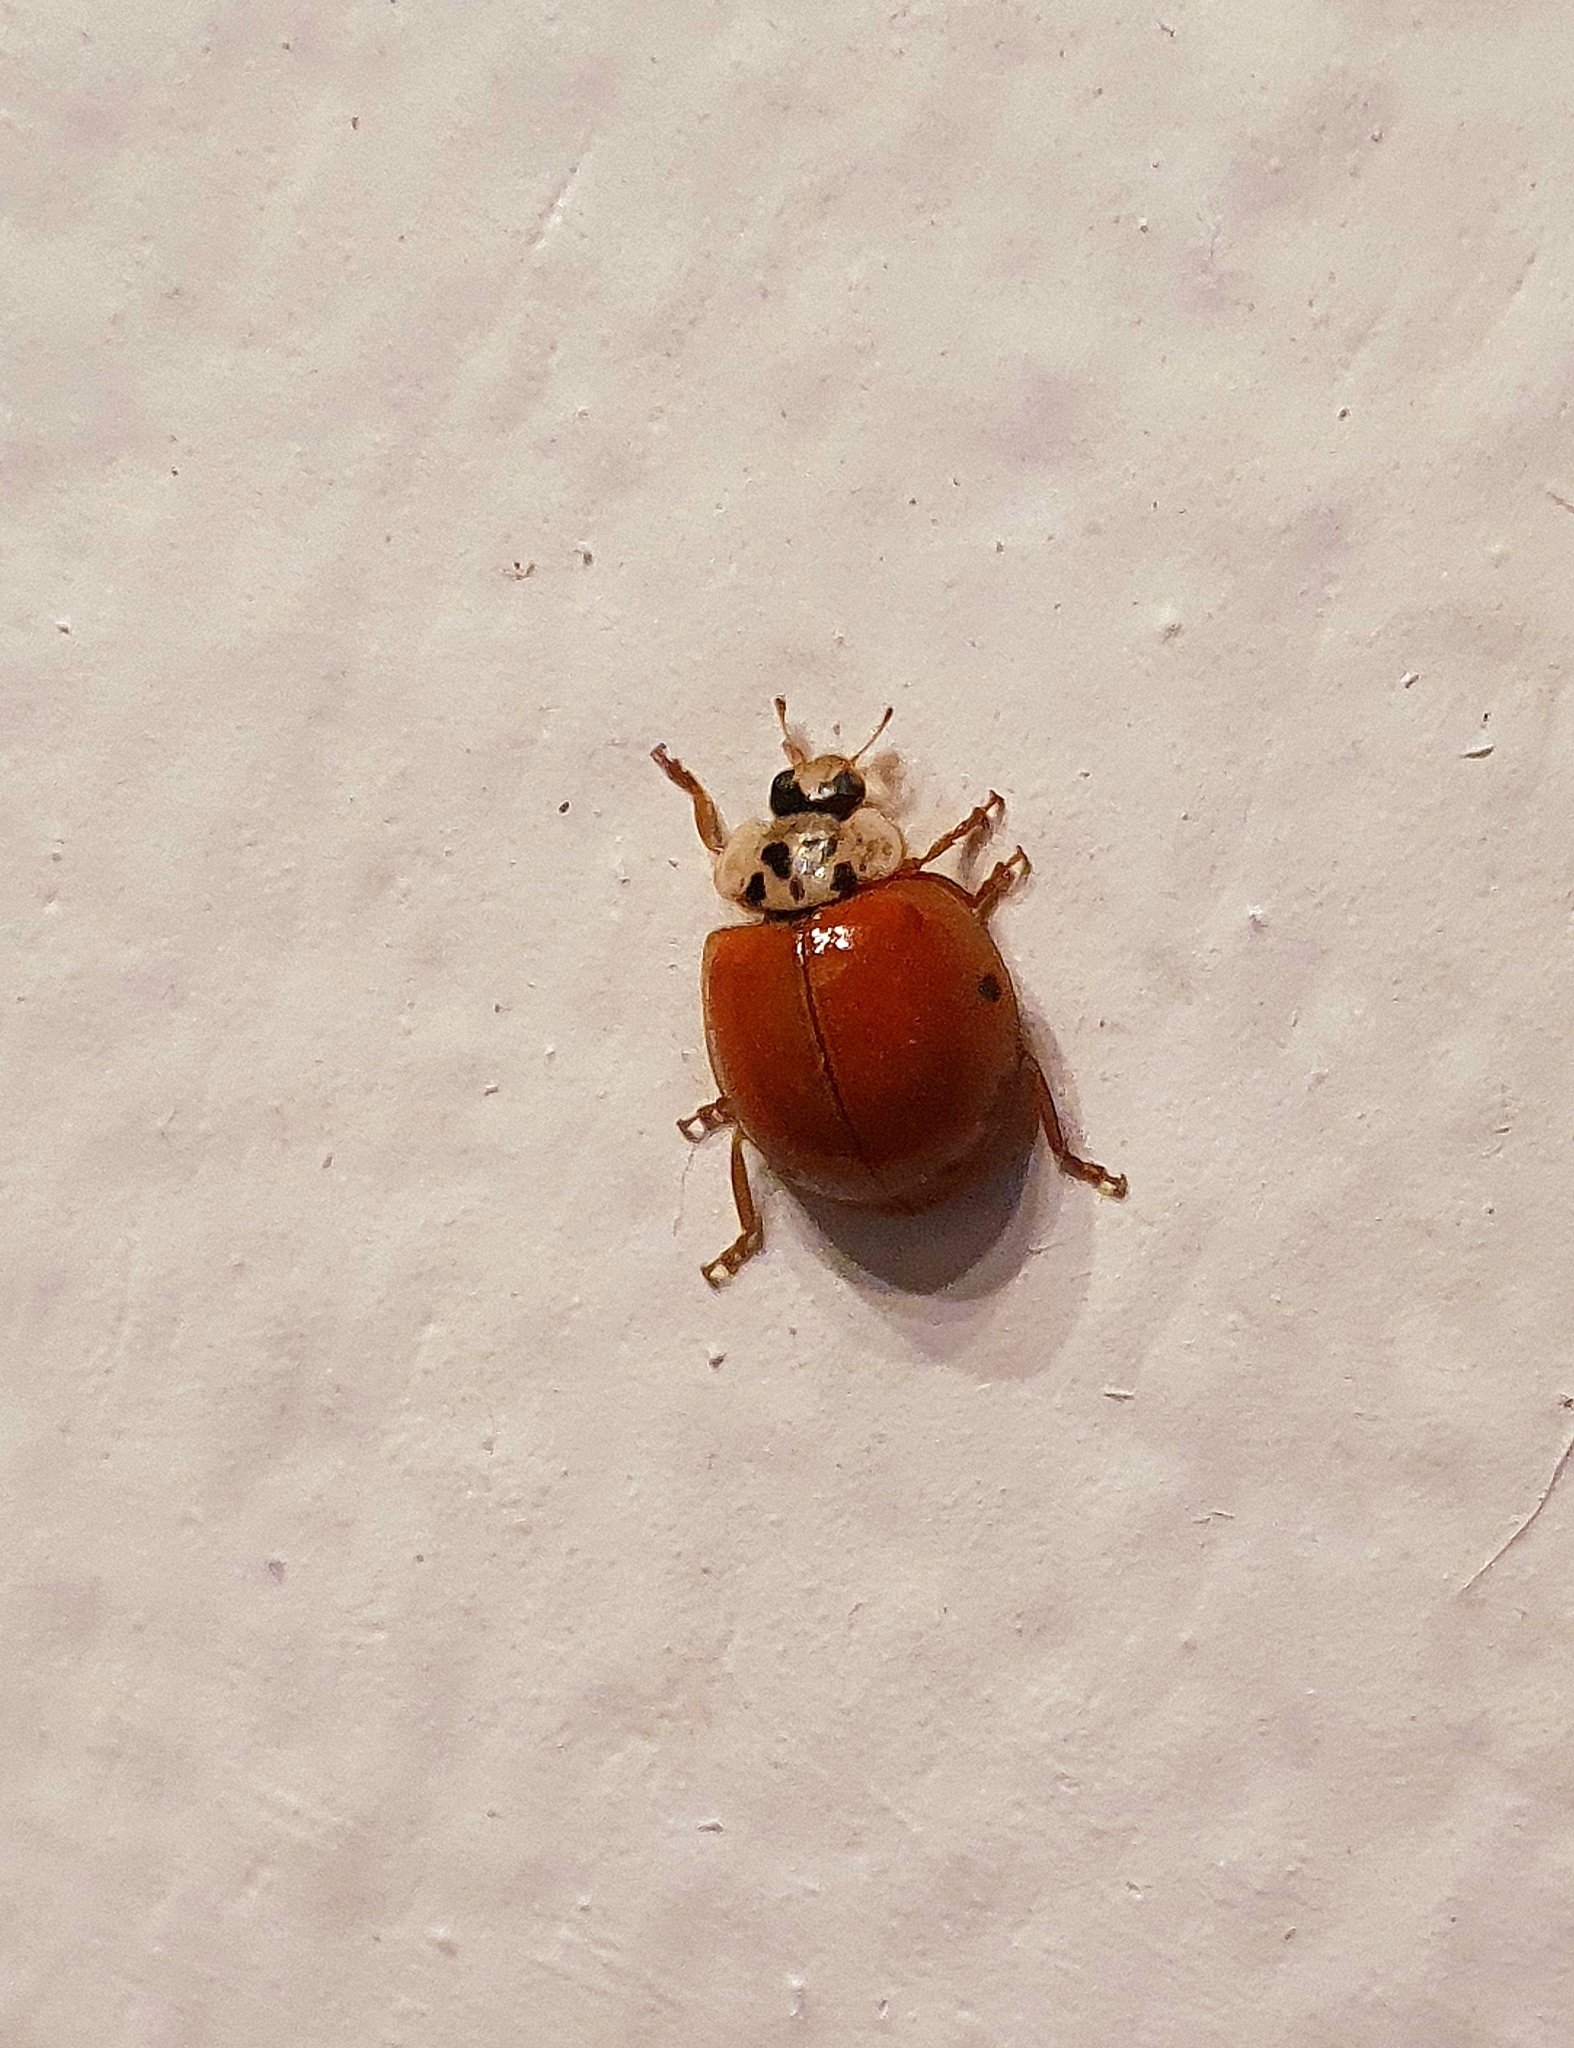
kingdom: Animalia
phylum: Arthropoda
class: Insecta
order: Coleoptera
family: Coccinellidae
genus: Harmonia
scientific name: Harmonia axyridis
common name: Harlequin ladybird
